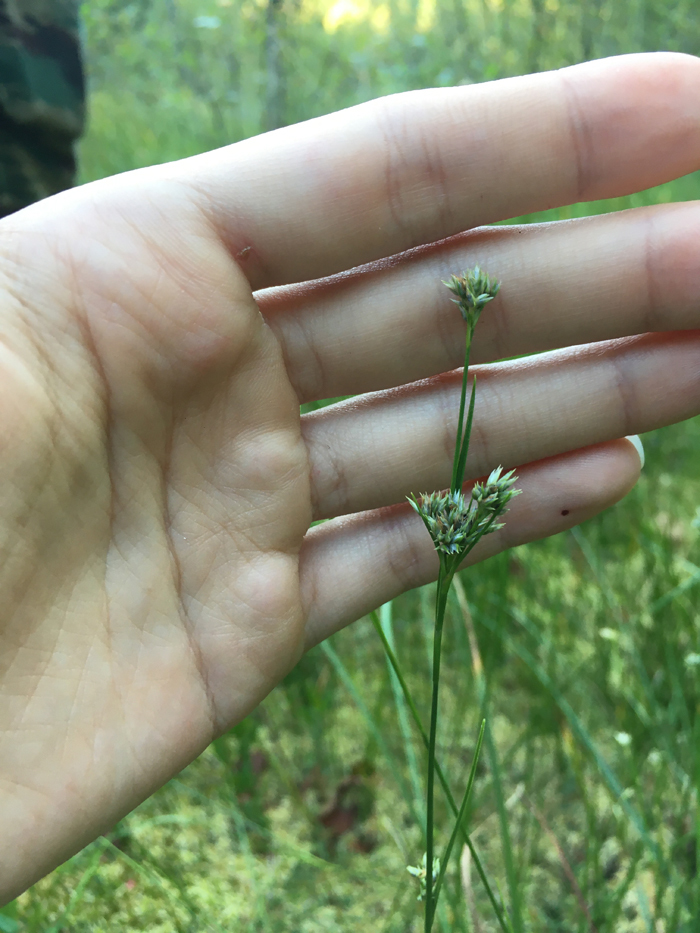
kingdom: Plantae
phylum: Tracheophyta
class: Liliopsida
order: Poales
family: Cyperaceae
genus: Rhynchospora
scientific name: Rhynchospora alba
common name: White beak-sedge
